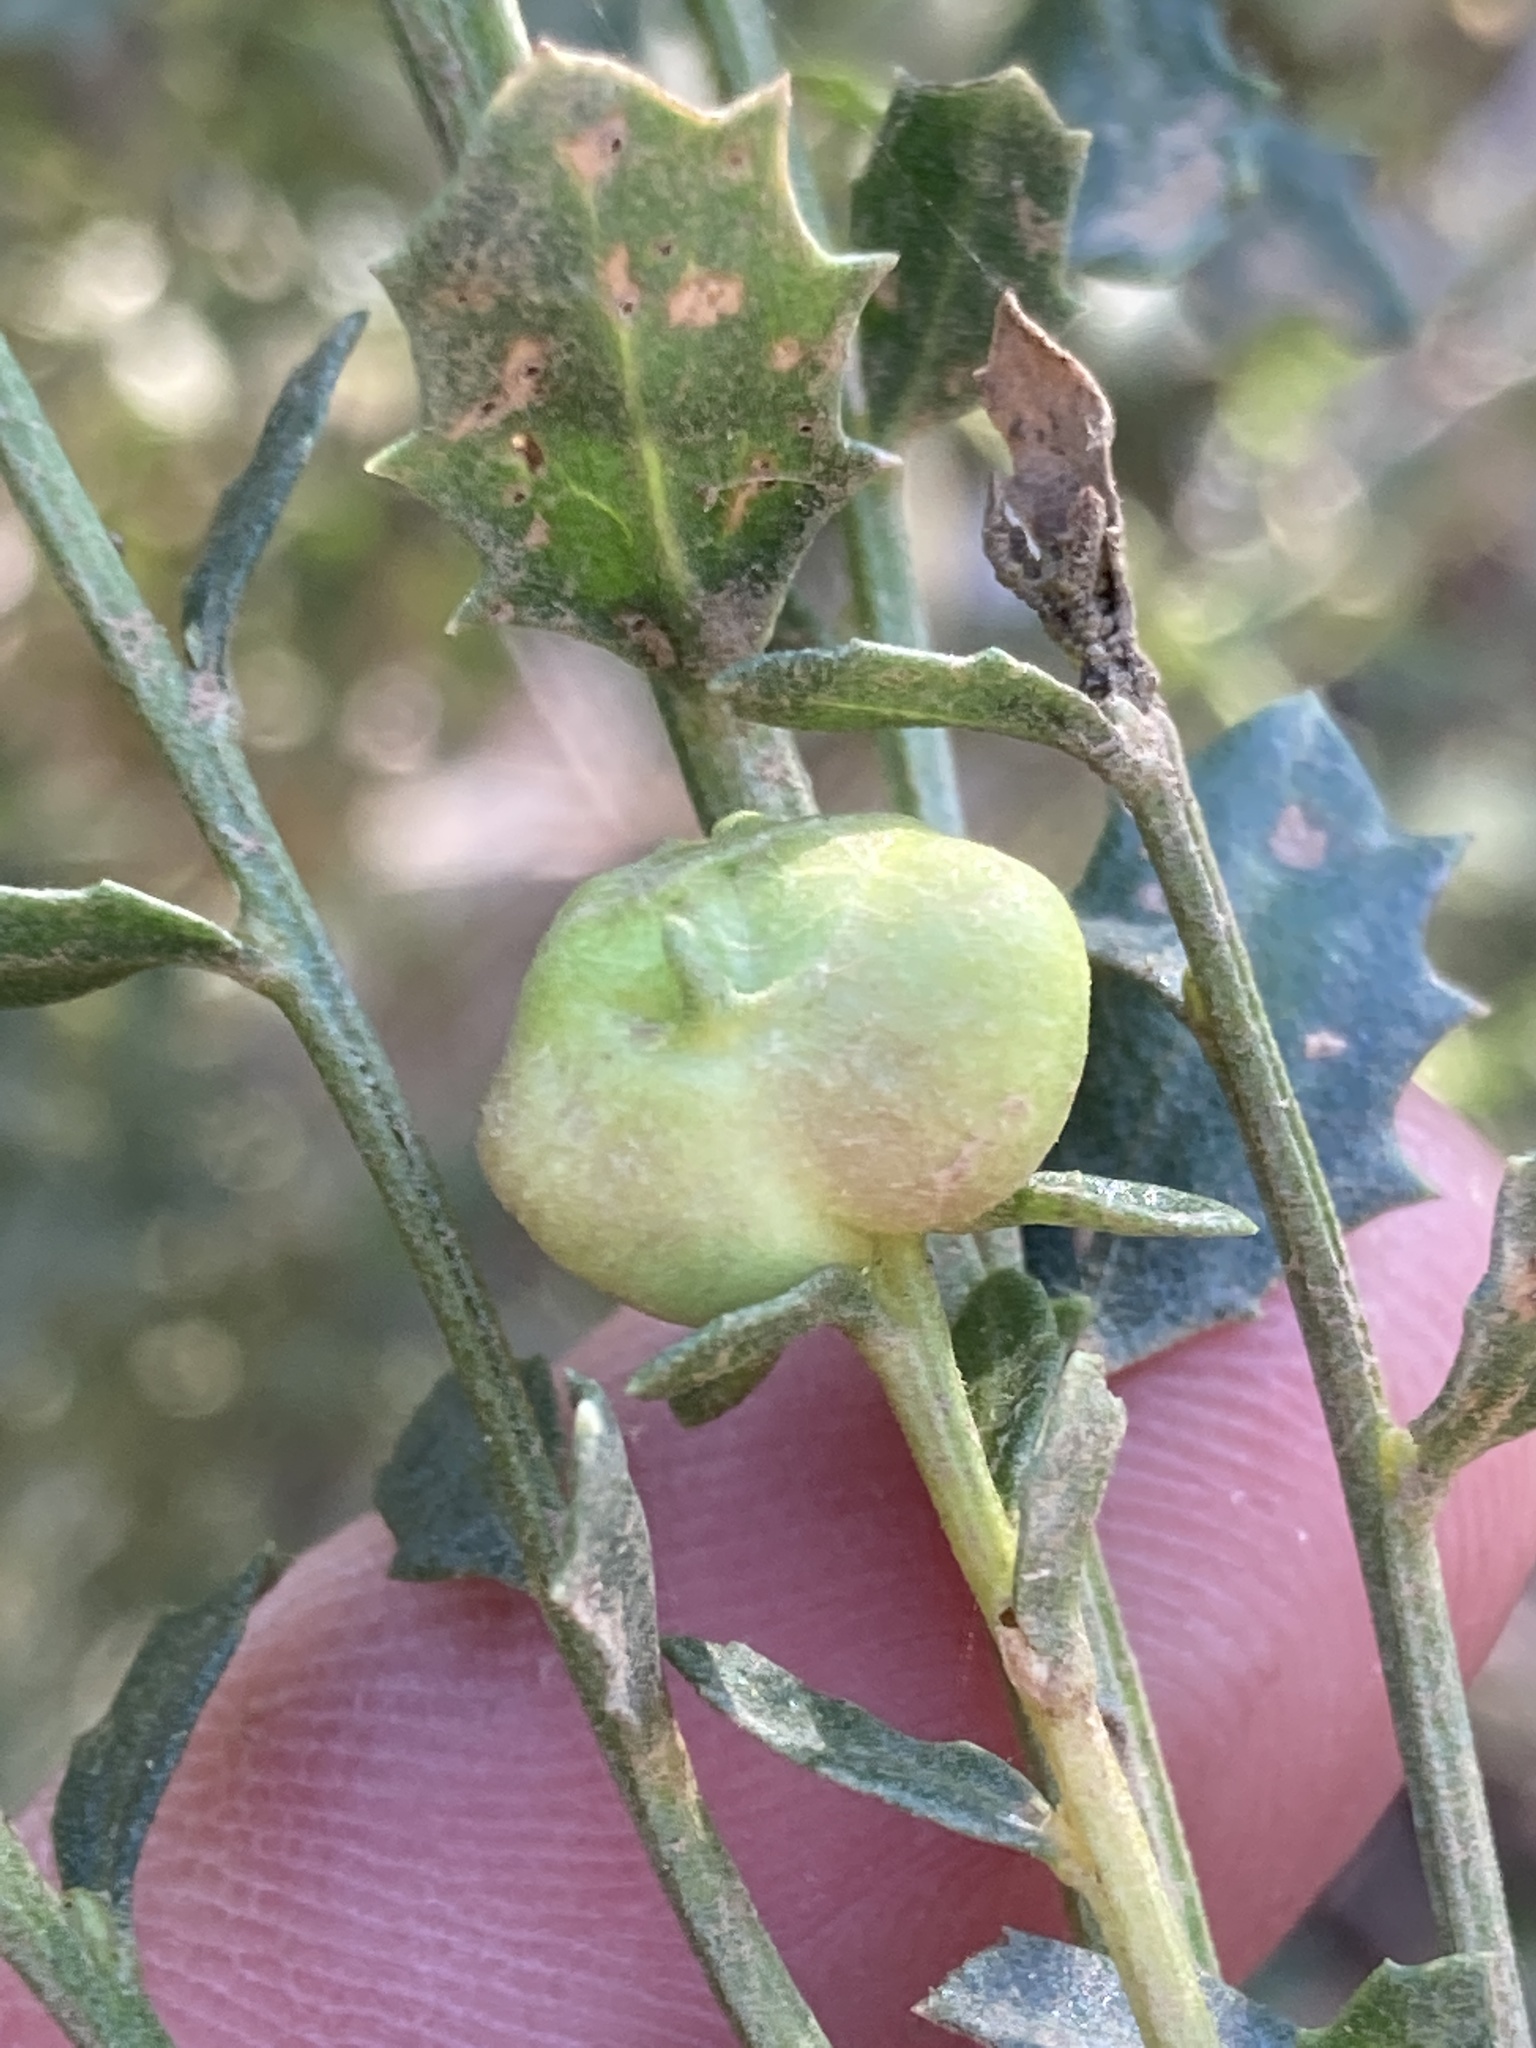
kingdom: Animalia
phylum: Arthropoda
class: Insecta
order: Diptera
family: Cecidomyiidae
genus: Rhopalomyia
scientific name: Rhopalomyia californica
